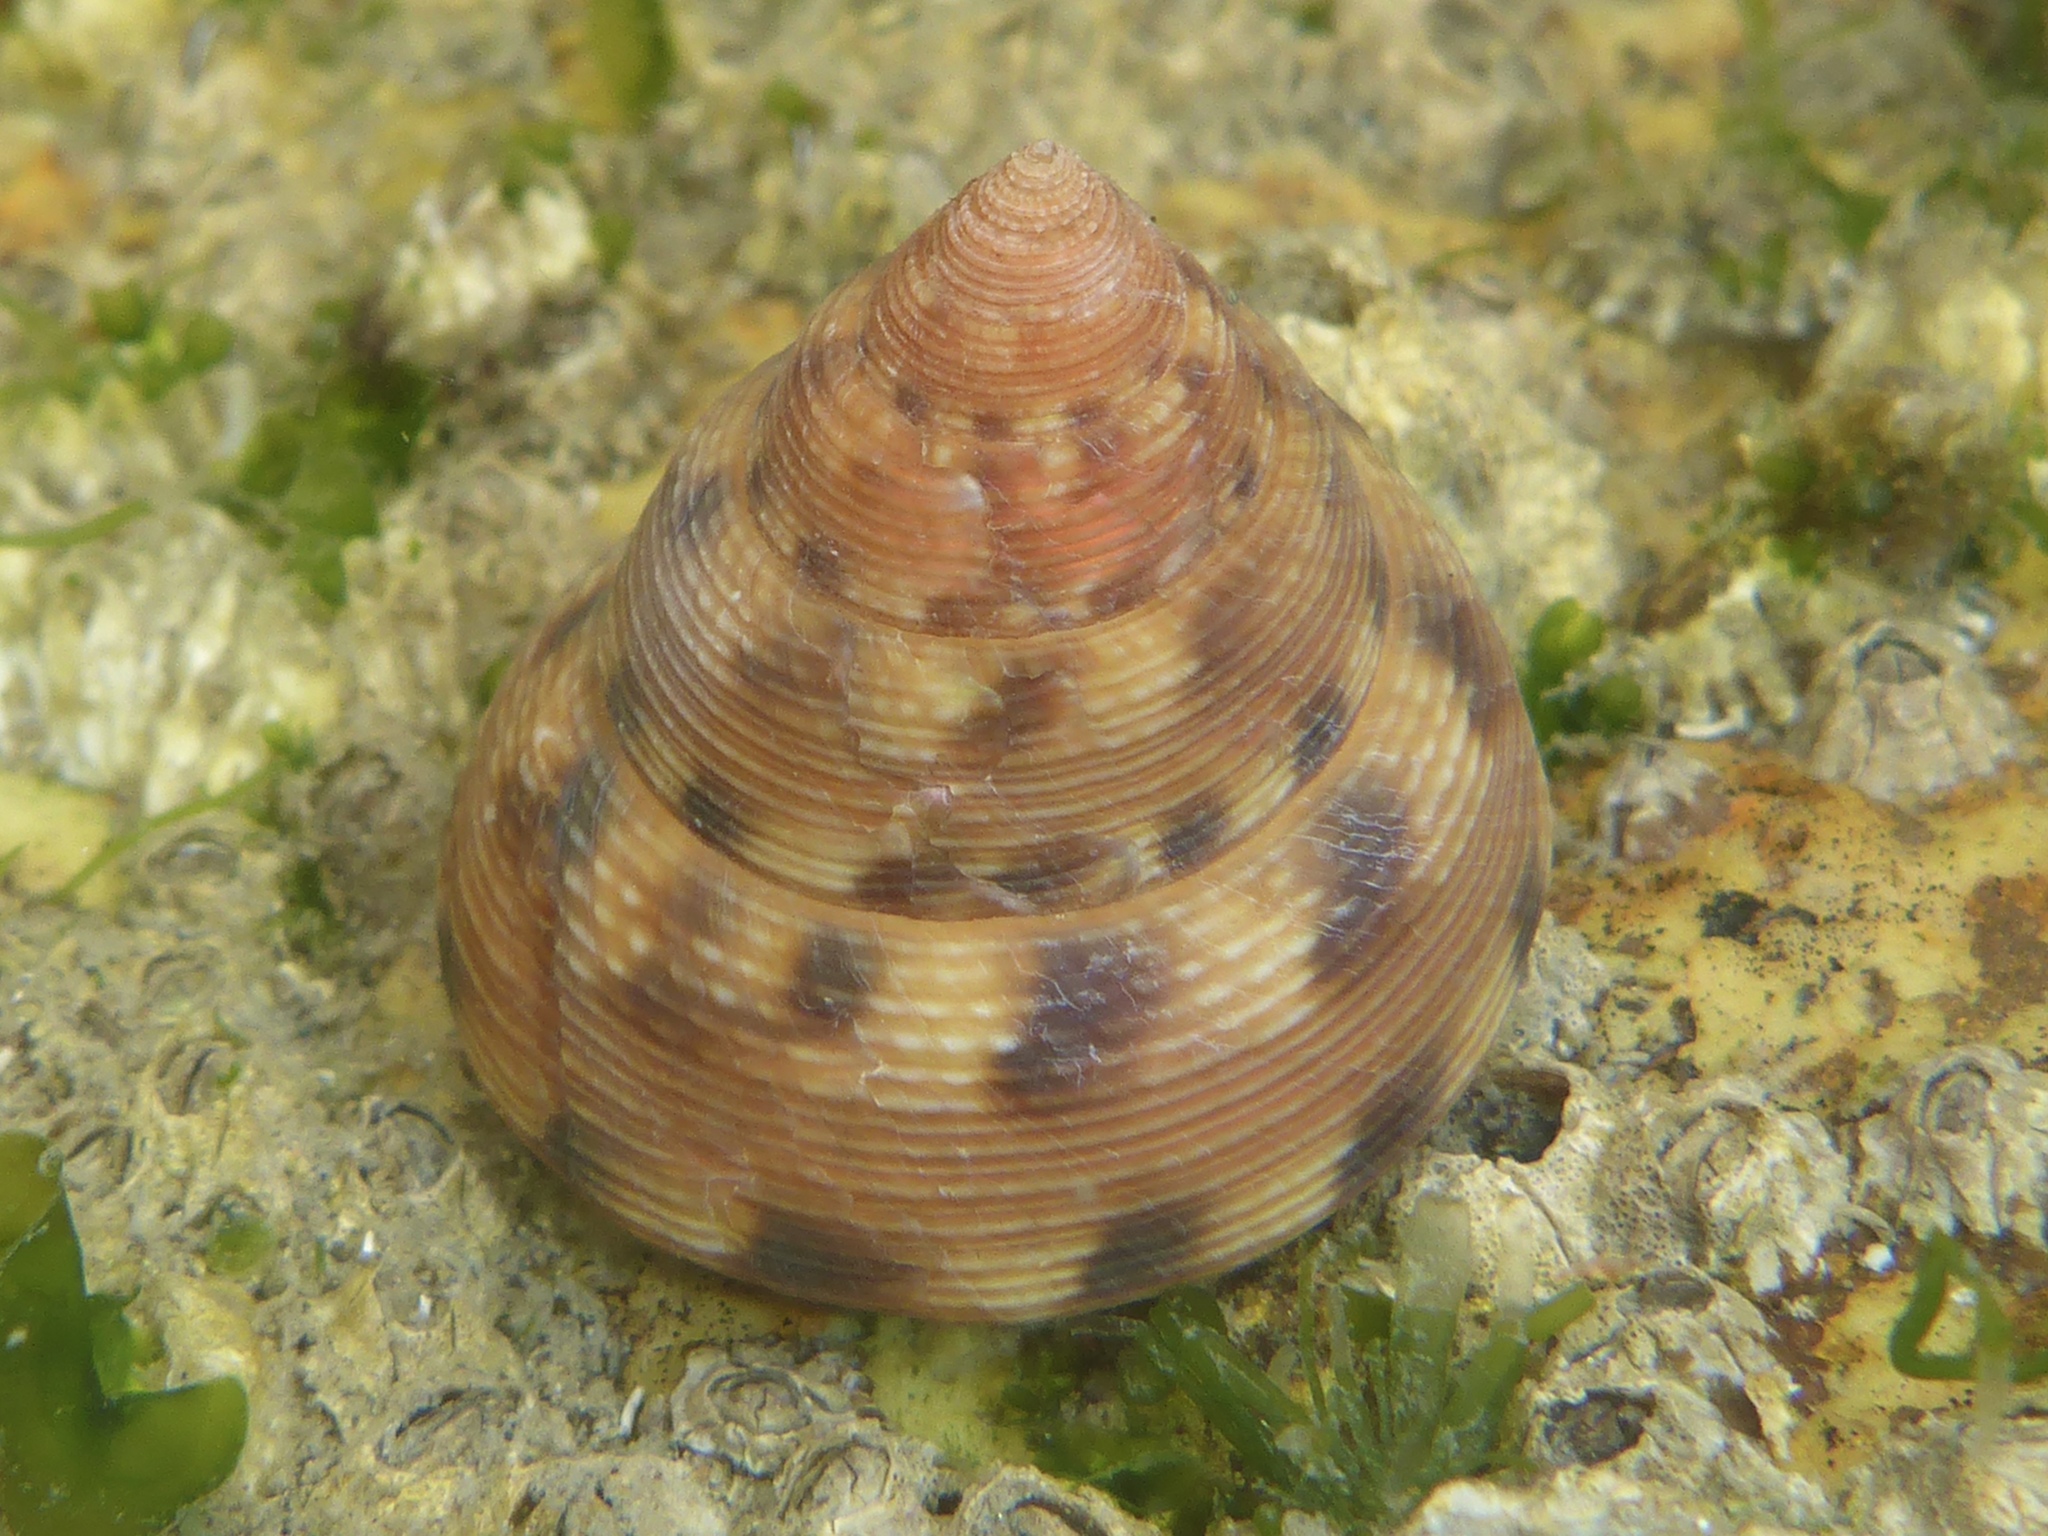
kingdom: Animalia
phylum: Mollusca
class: Gastropoda
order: Trochida
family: Calliostomatidae
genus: Calliostoma
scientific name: Calliostoma gloriosum
